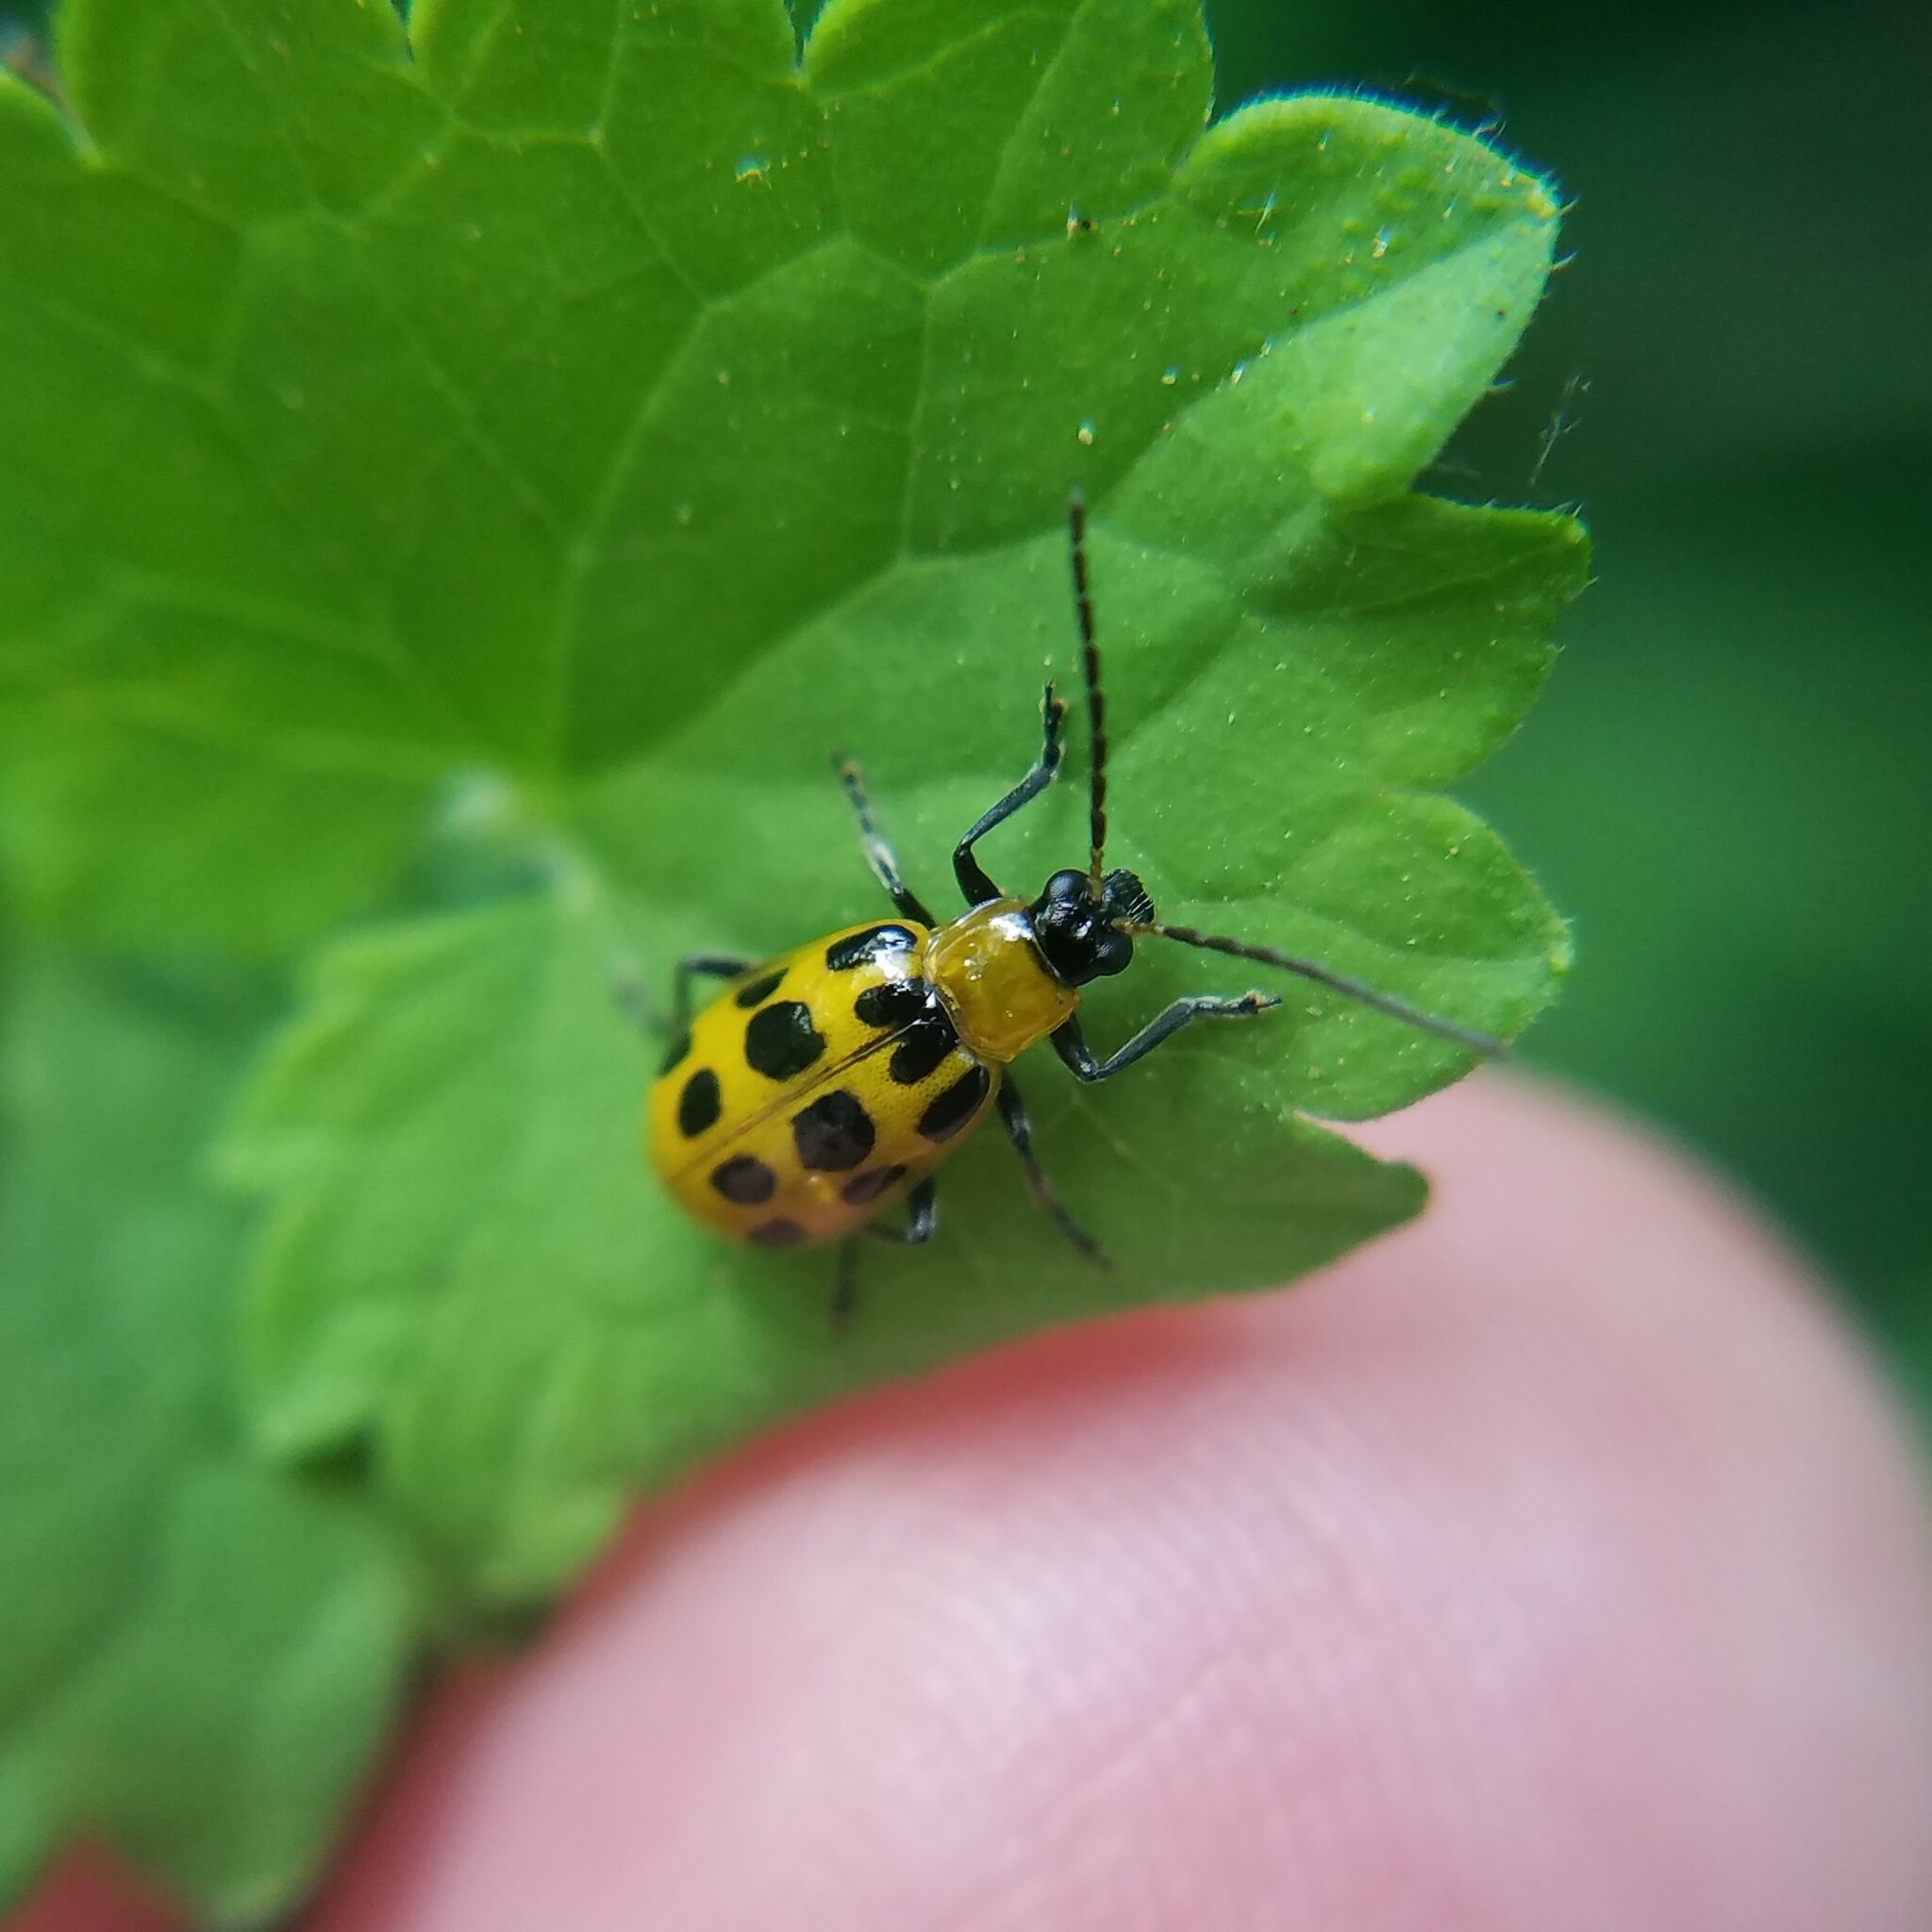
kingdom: Animalia
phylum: Arthropoda
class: Insecta
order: Coleoptera
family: Chrysomelidae
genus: Diabrotica
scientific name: Diabrotica undecimpunctata
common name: Spotted cucumber beetle
